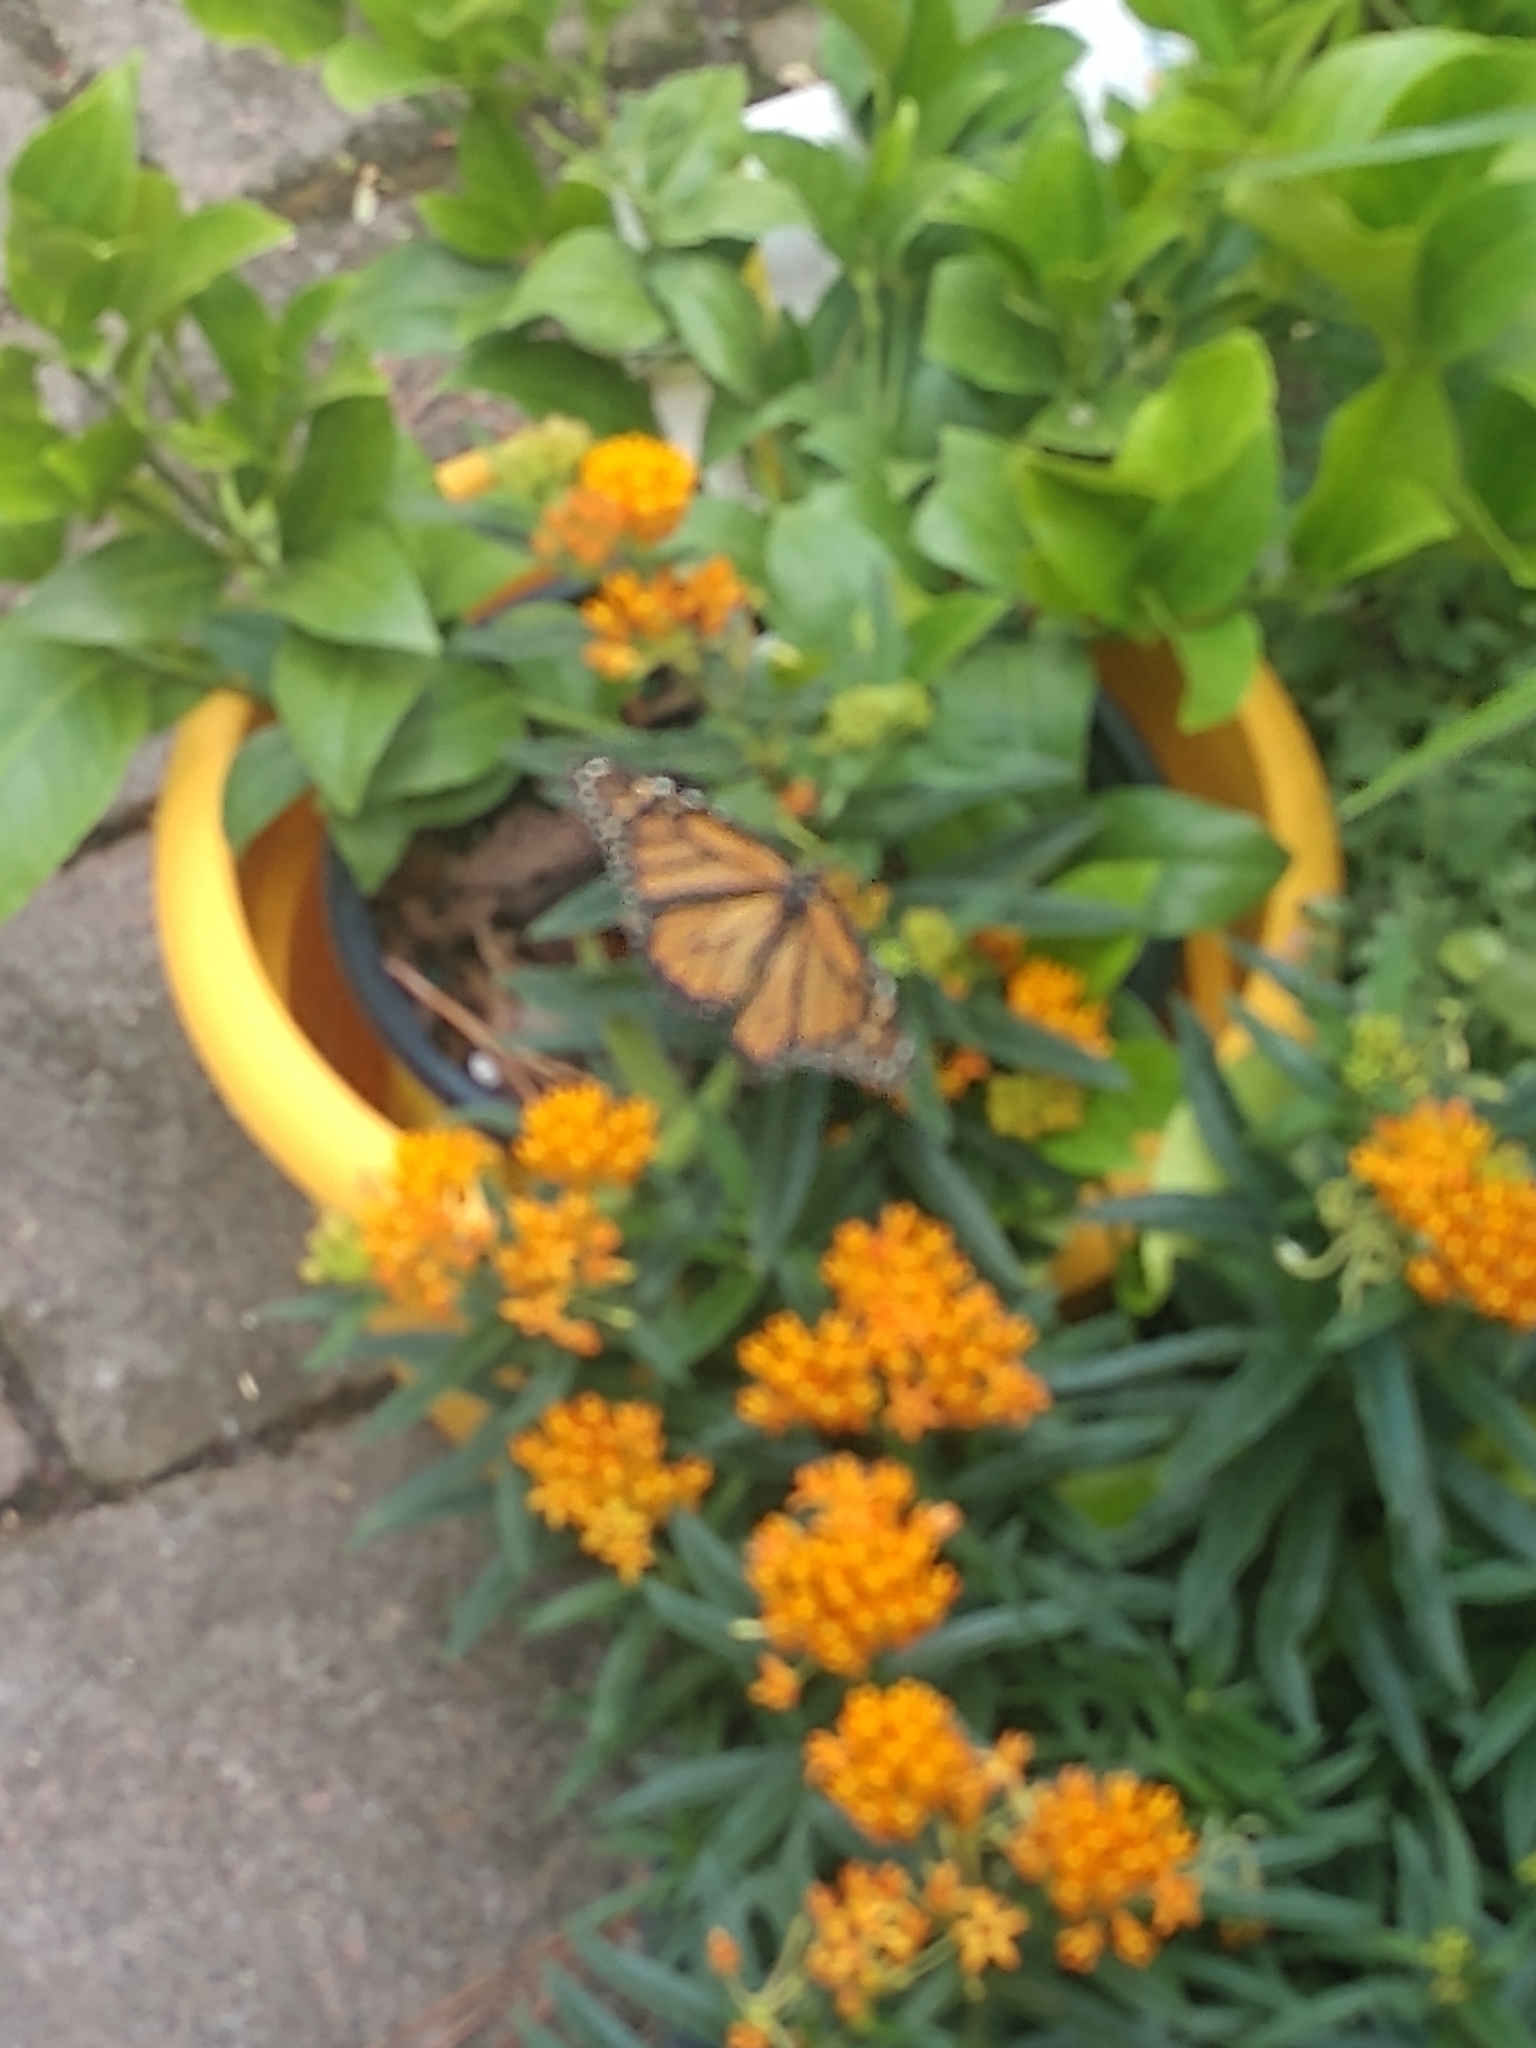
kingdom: Animalia
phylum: Arthropoda
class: Insecta
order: Lepidoptera
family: Nymphalidae
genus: Danaus
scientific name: Danaus plexippus
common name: Monarch
